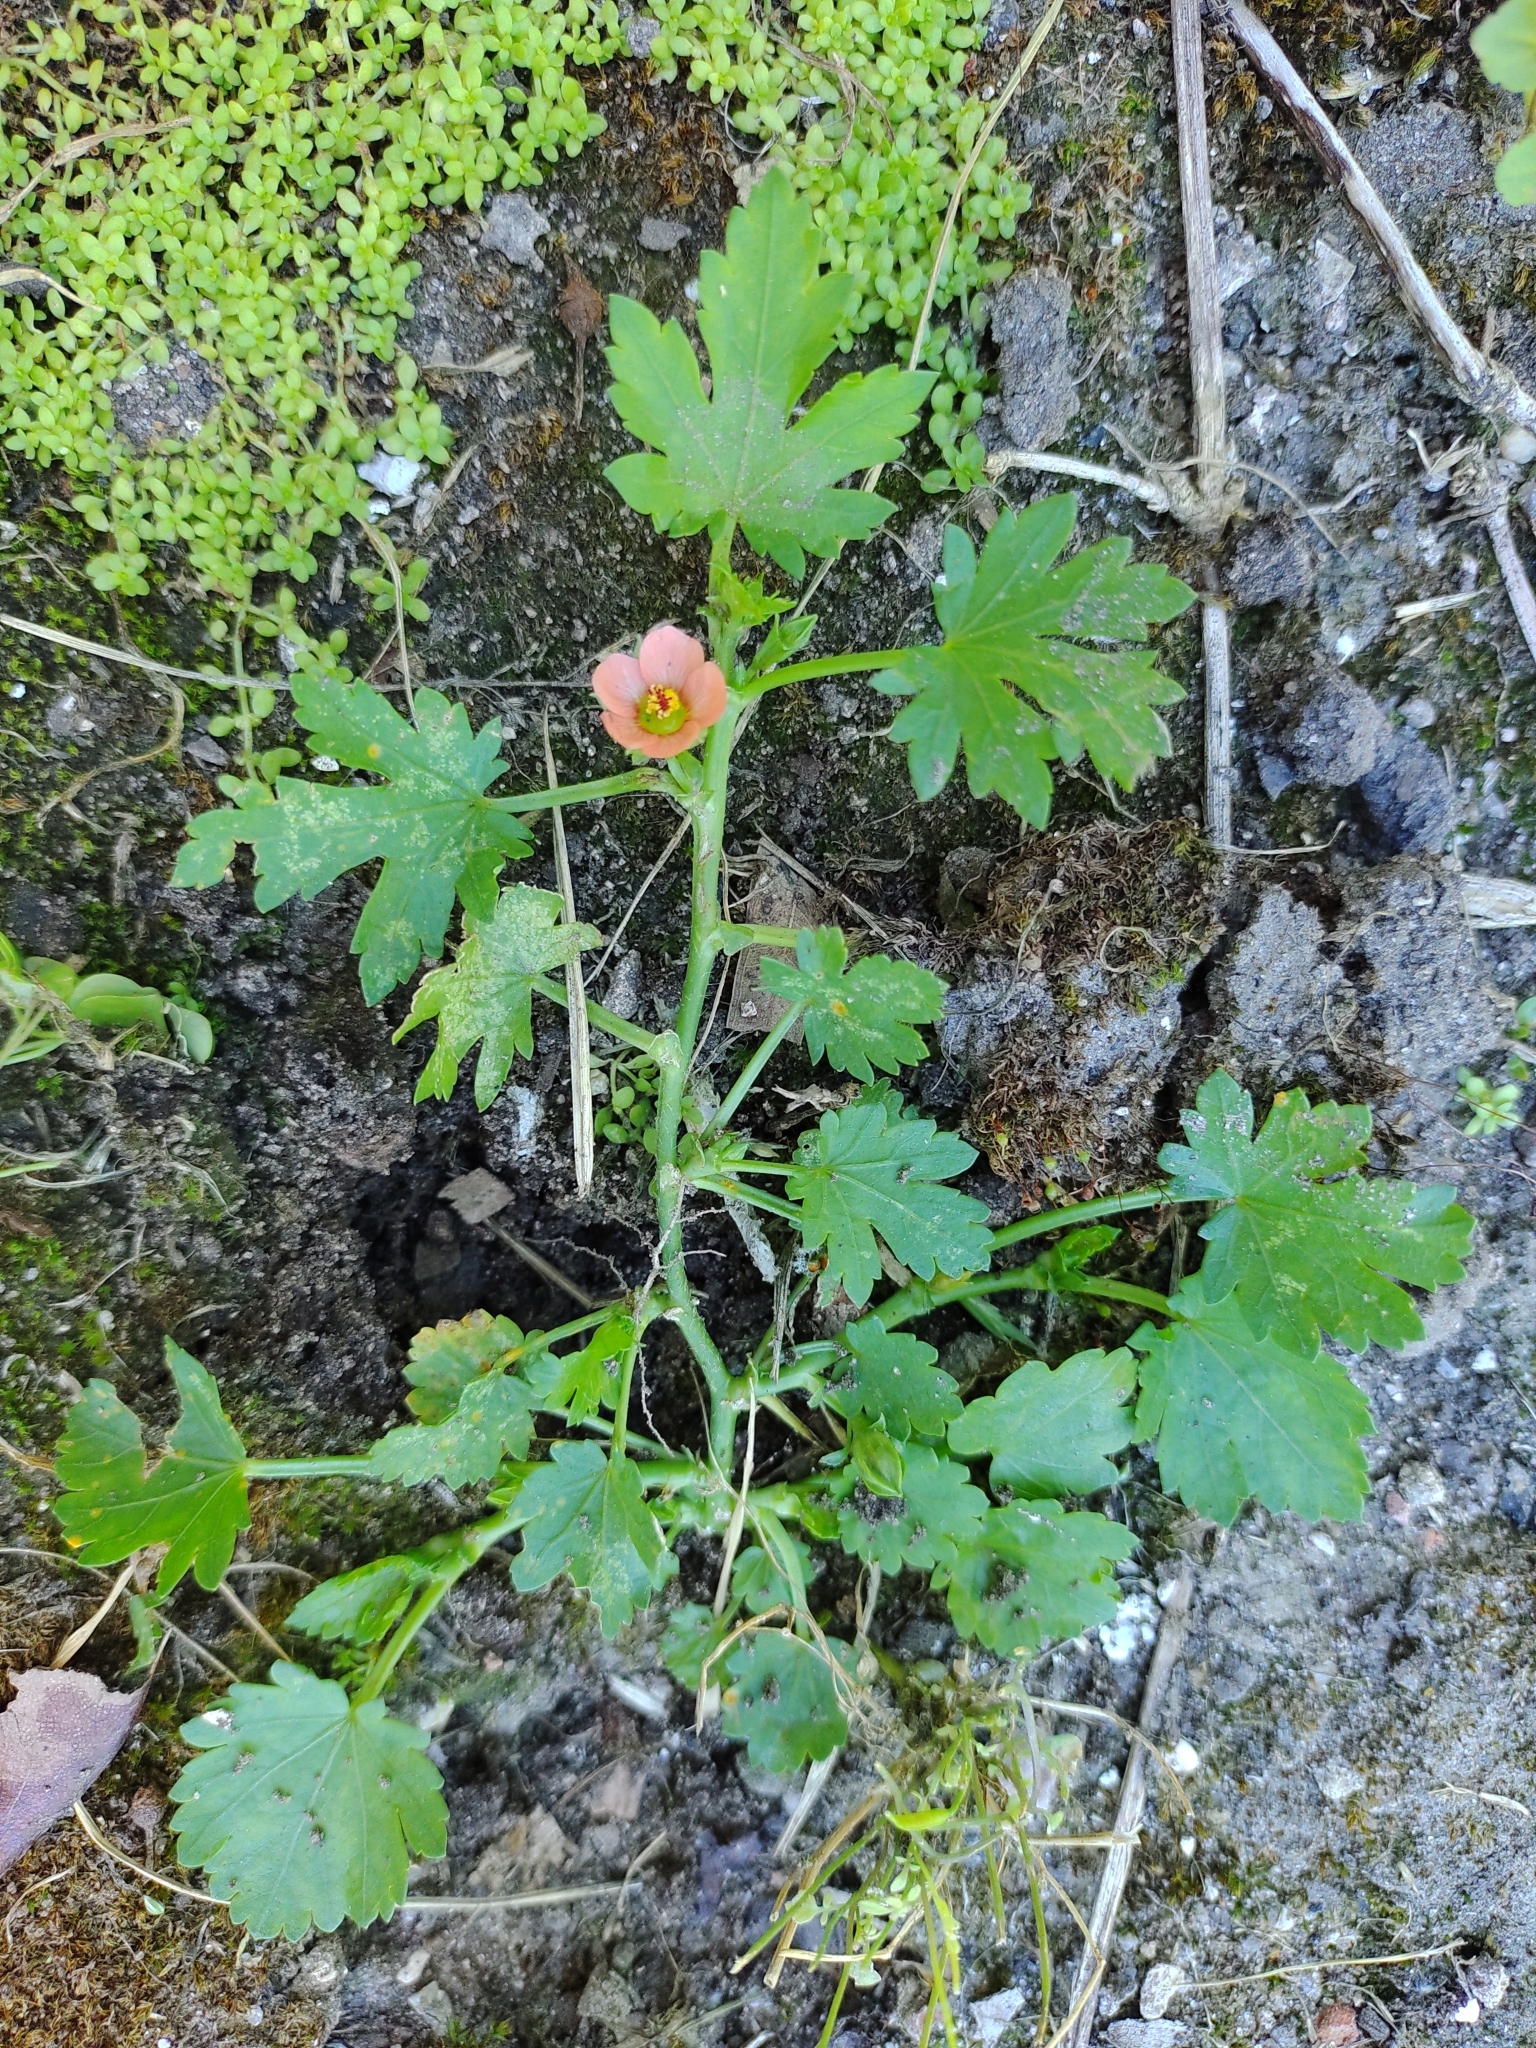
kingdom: Plantae
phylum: Tracheophyta
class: Magnoliopsida
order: Malvales
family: Malvaceae
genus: Modiola
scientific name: Modiola caroliniana
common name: Carolina bristlemallow
